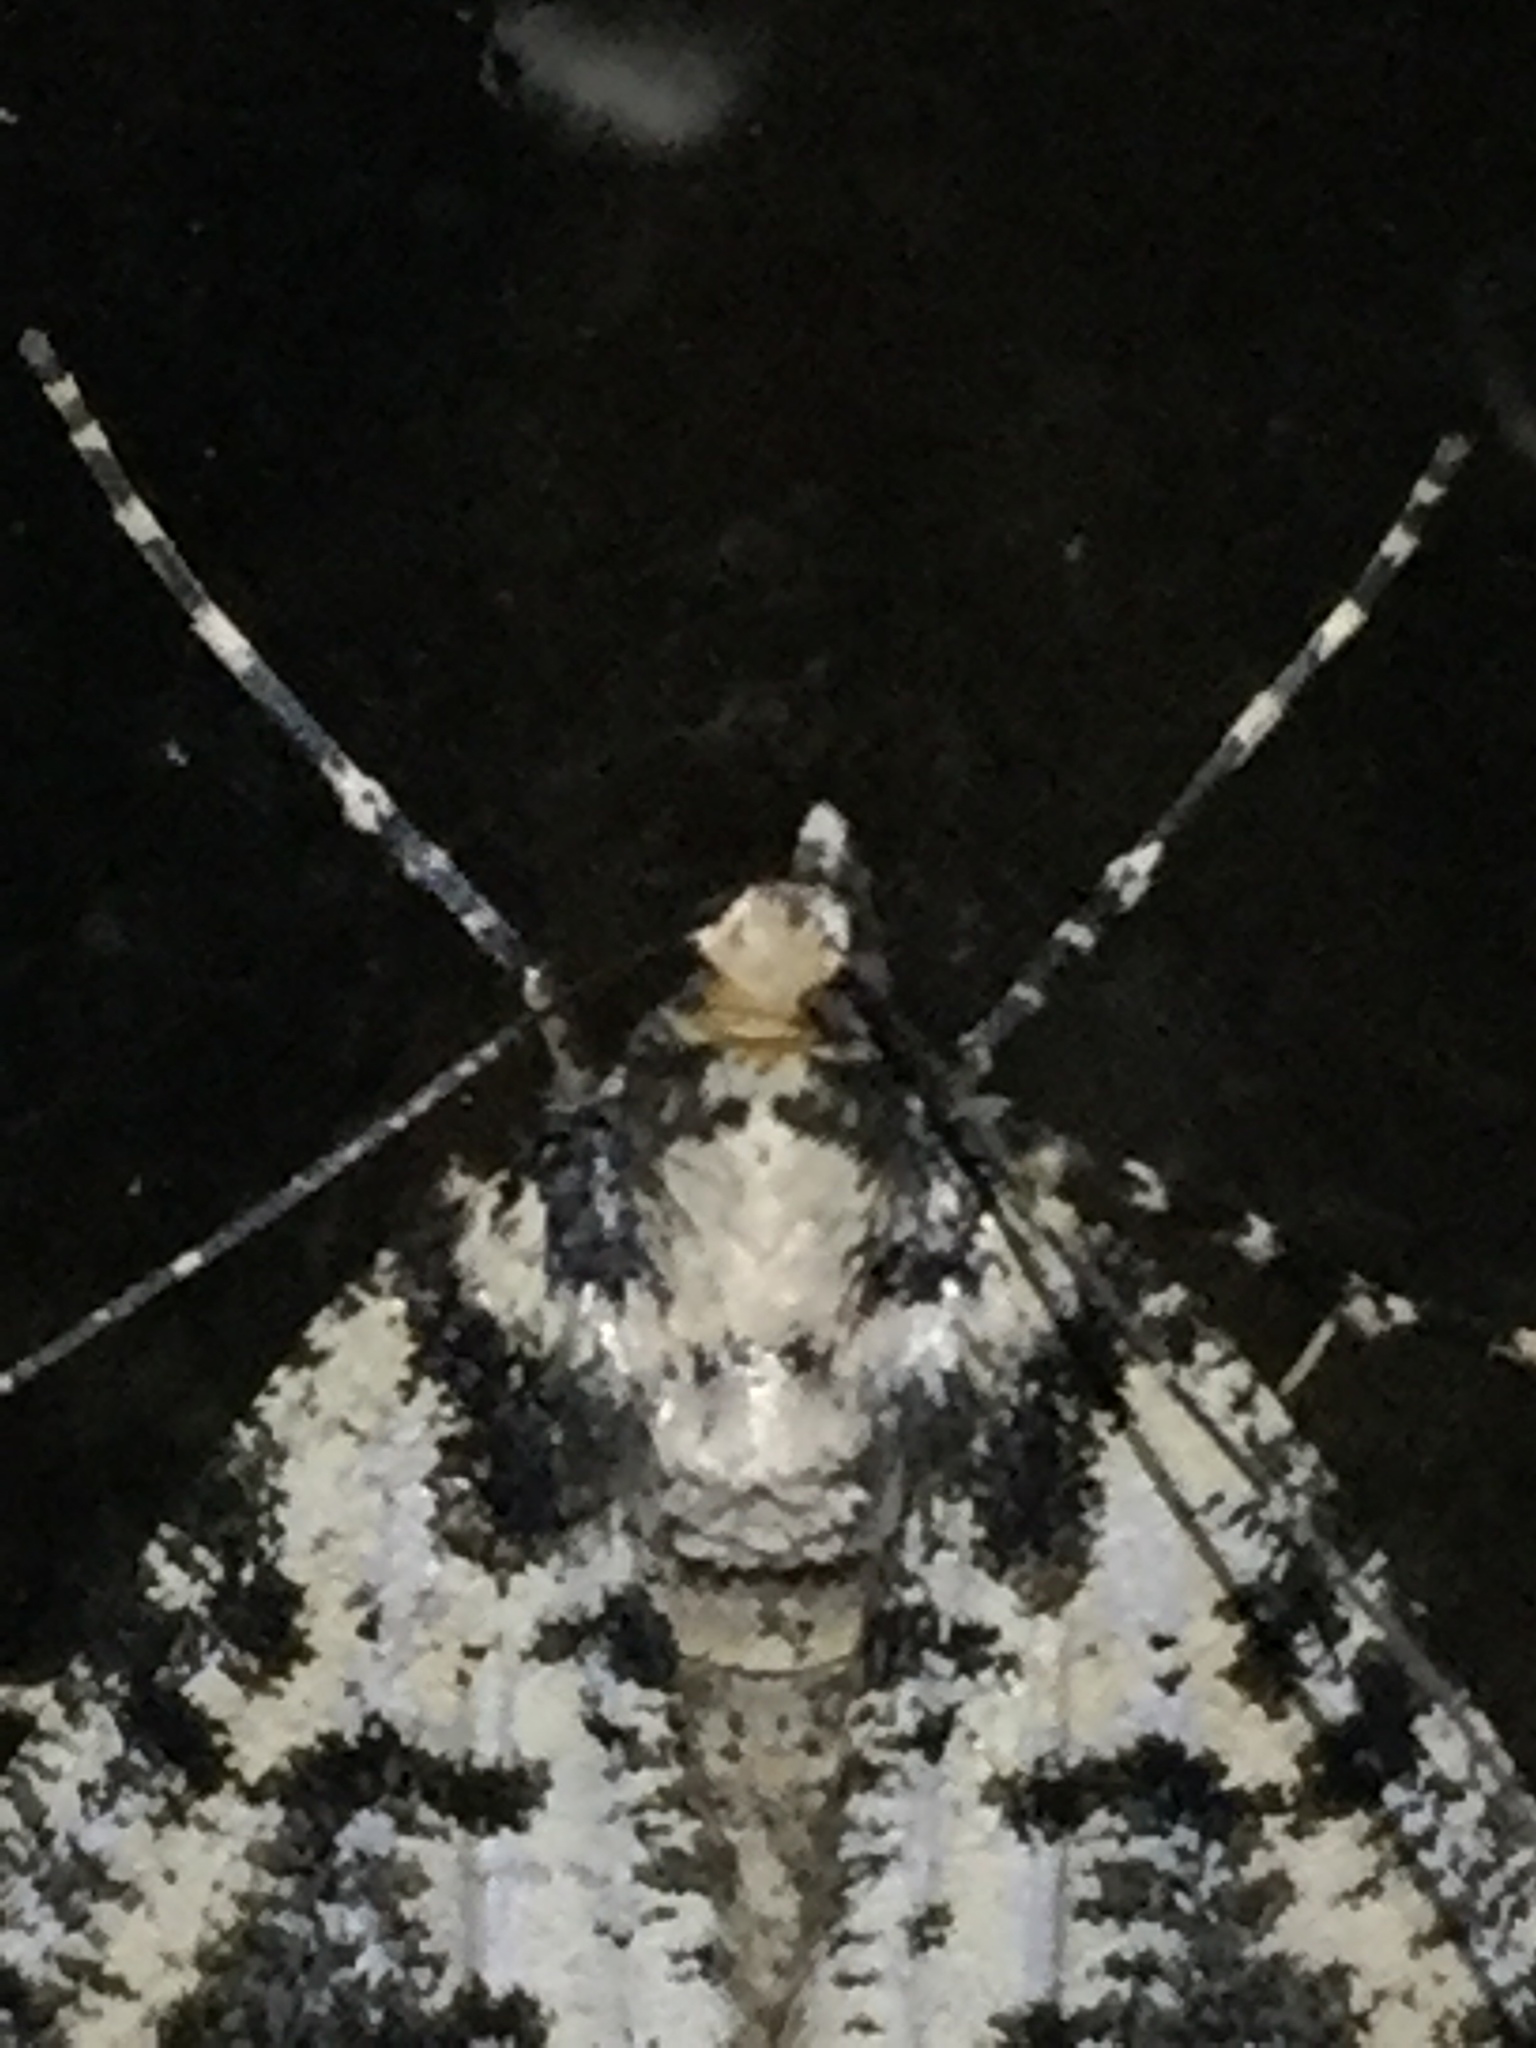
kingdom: Animalia
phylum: Arthropoda
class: Insecta
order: Lepidoptera
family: Geometridae
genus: Pseudocoremia
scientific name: Pseudocoremia leucelaea
